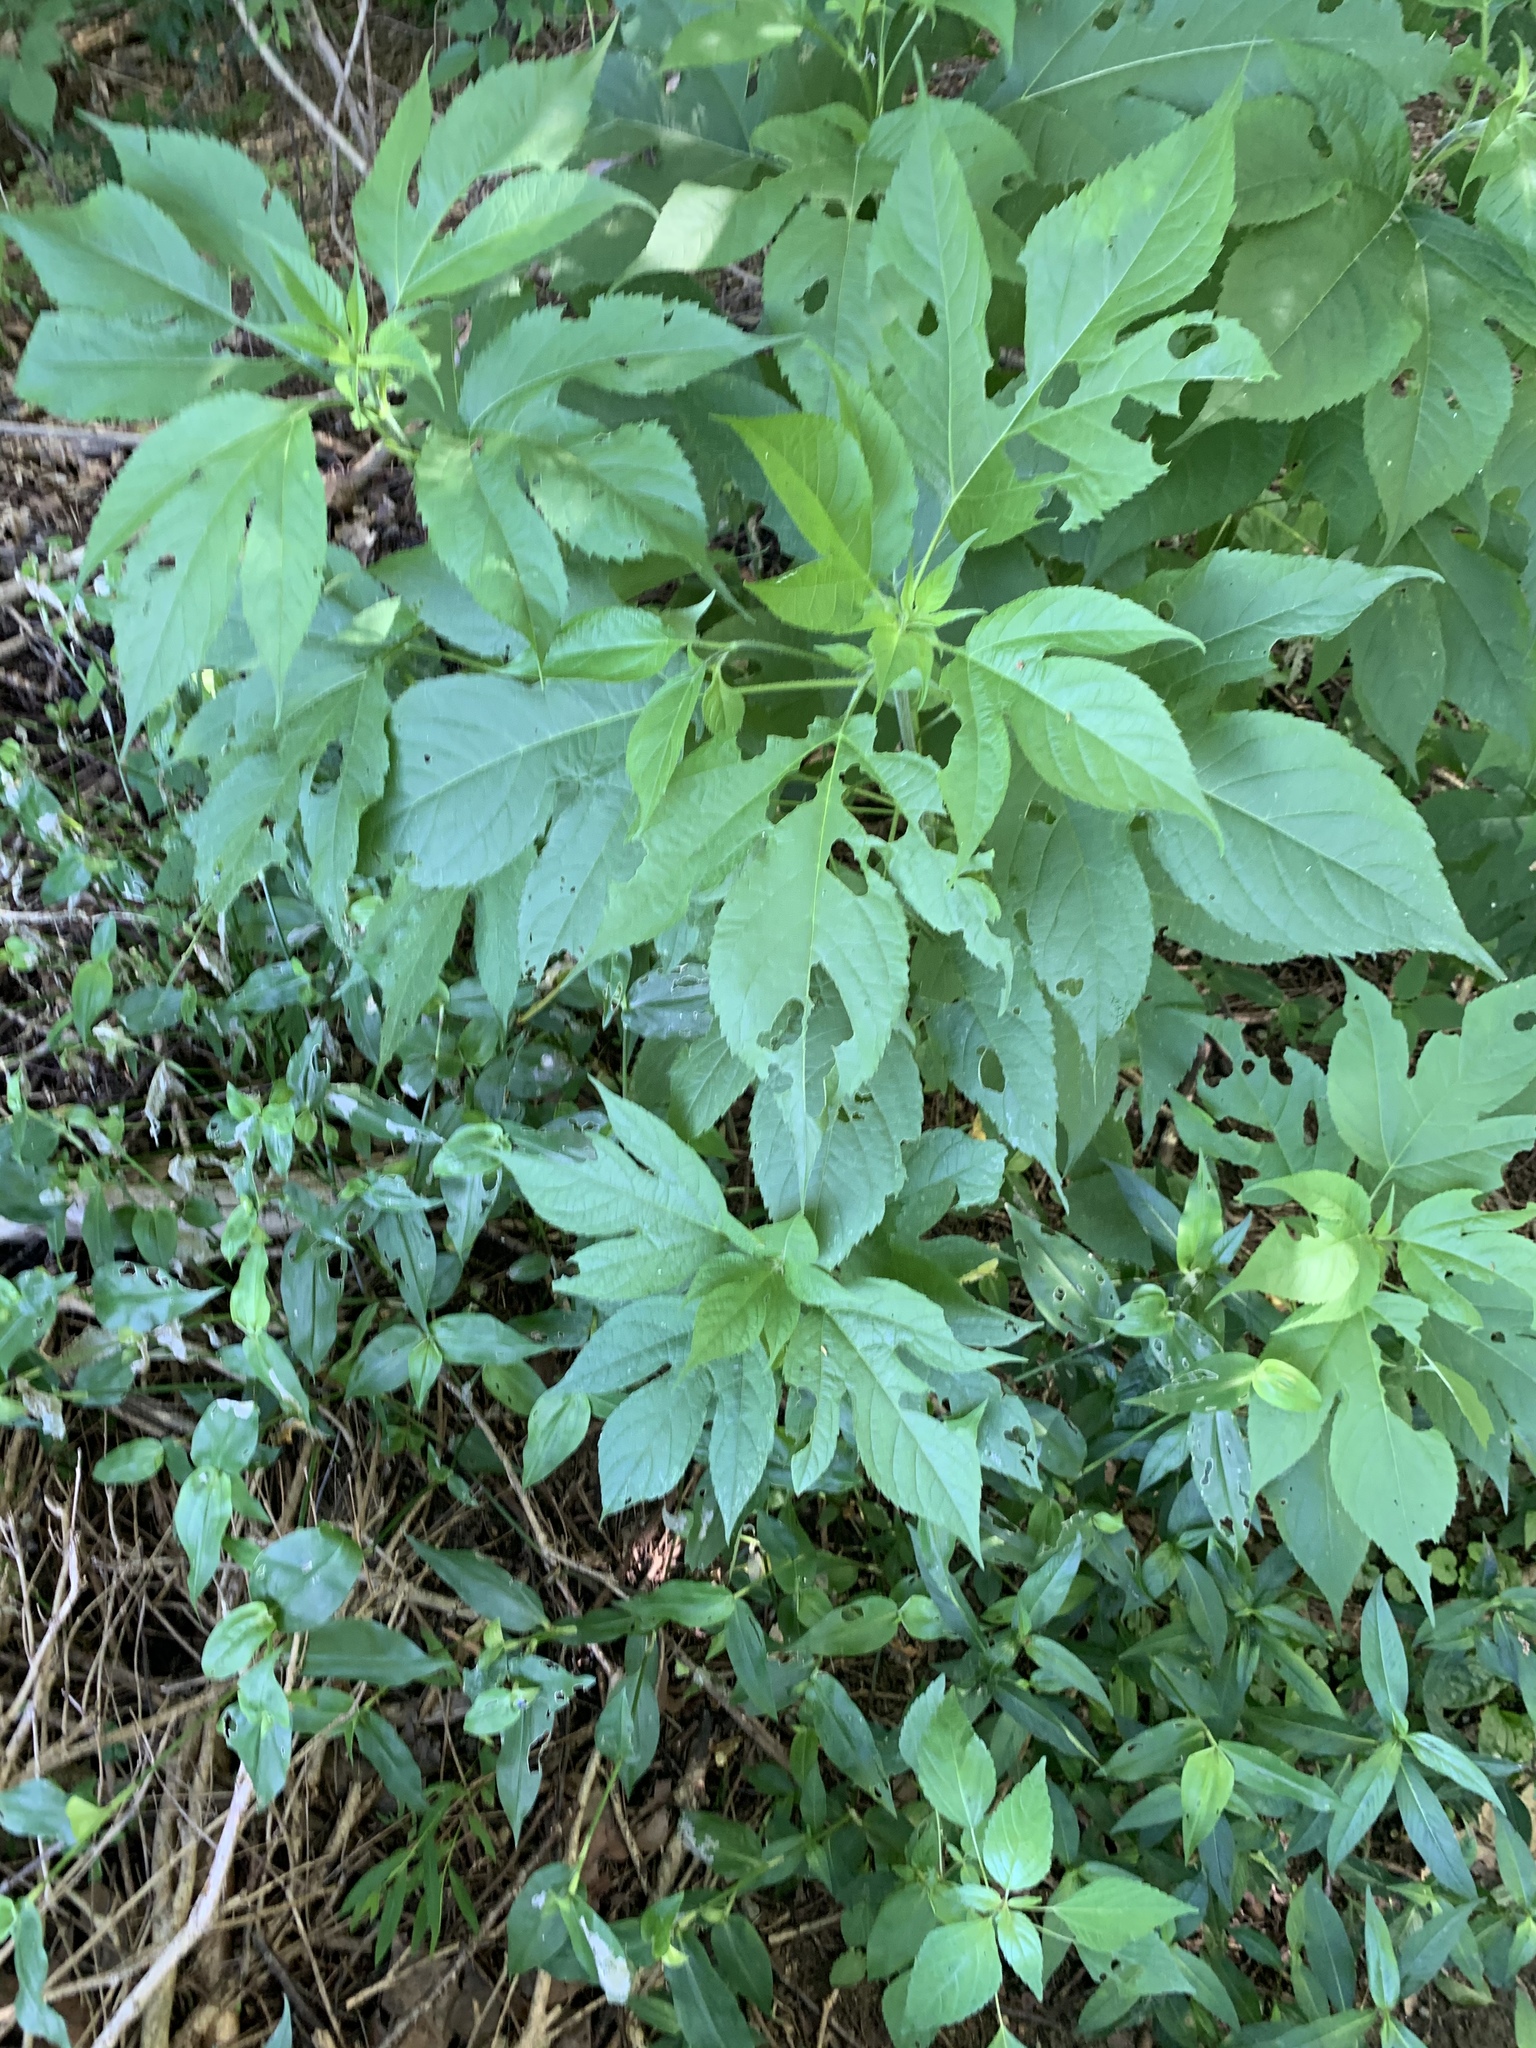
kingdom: Plantae
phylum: Tracheophyta
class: Magnoliopsida
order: Asterales
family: Asteraceae
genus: Ambrosia
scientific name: Ambrosia trifida
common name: Giant ragweed
